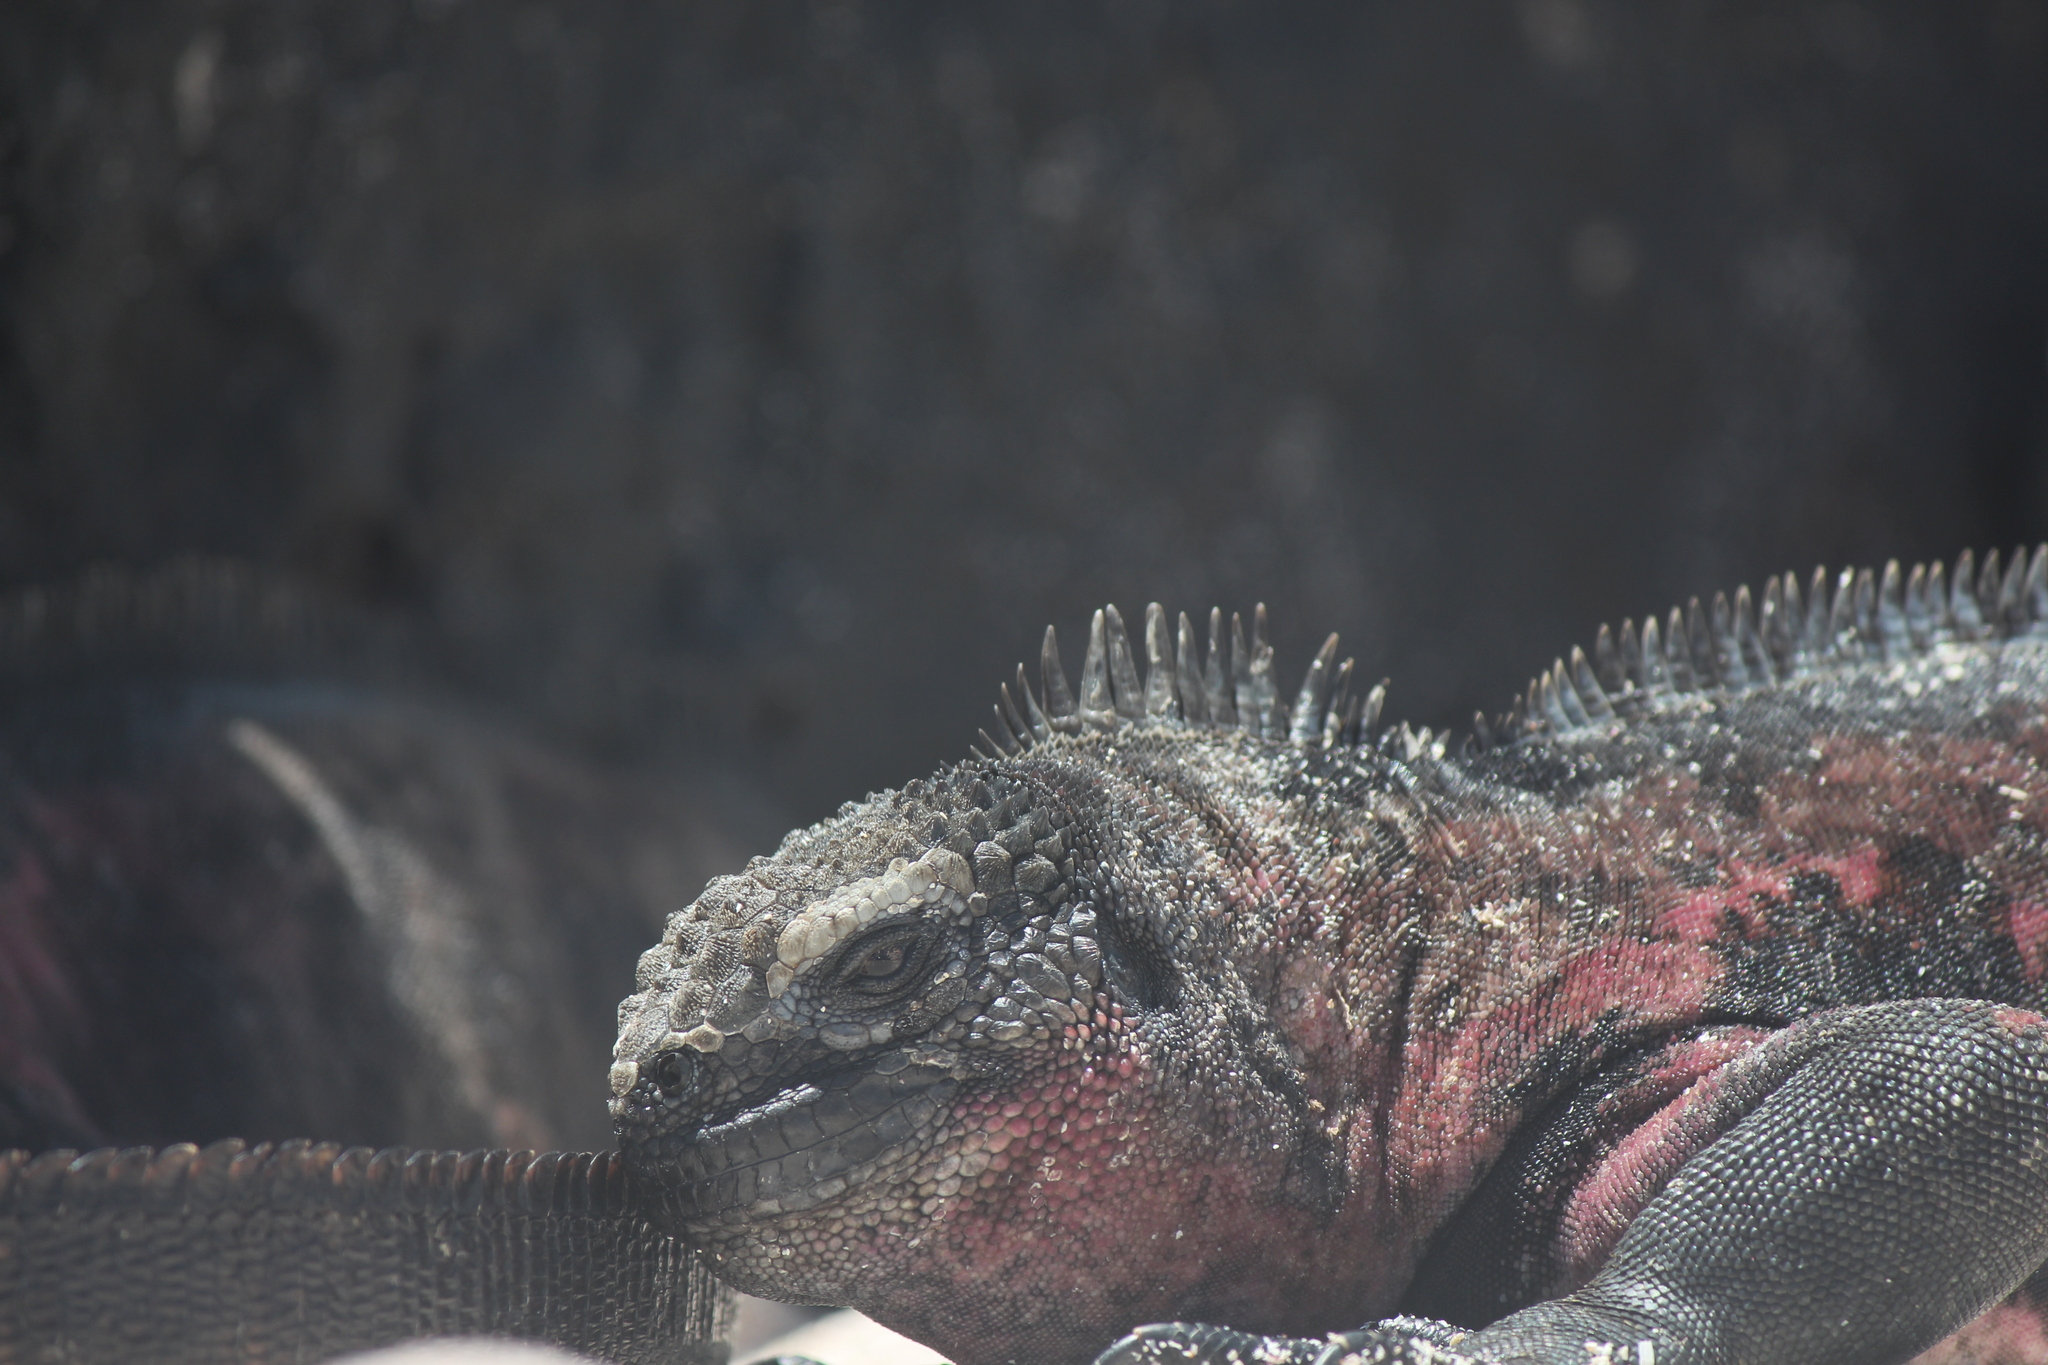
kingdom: Animalia
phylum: Chordata
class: Squamata
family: Iguanidae
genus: Amblyrhynchus
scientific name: Amblyrhynchus cristatus
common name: Marine iguana
